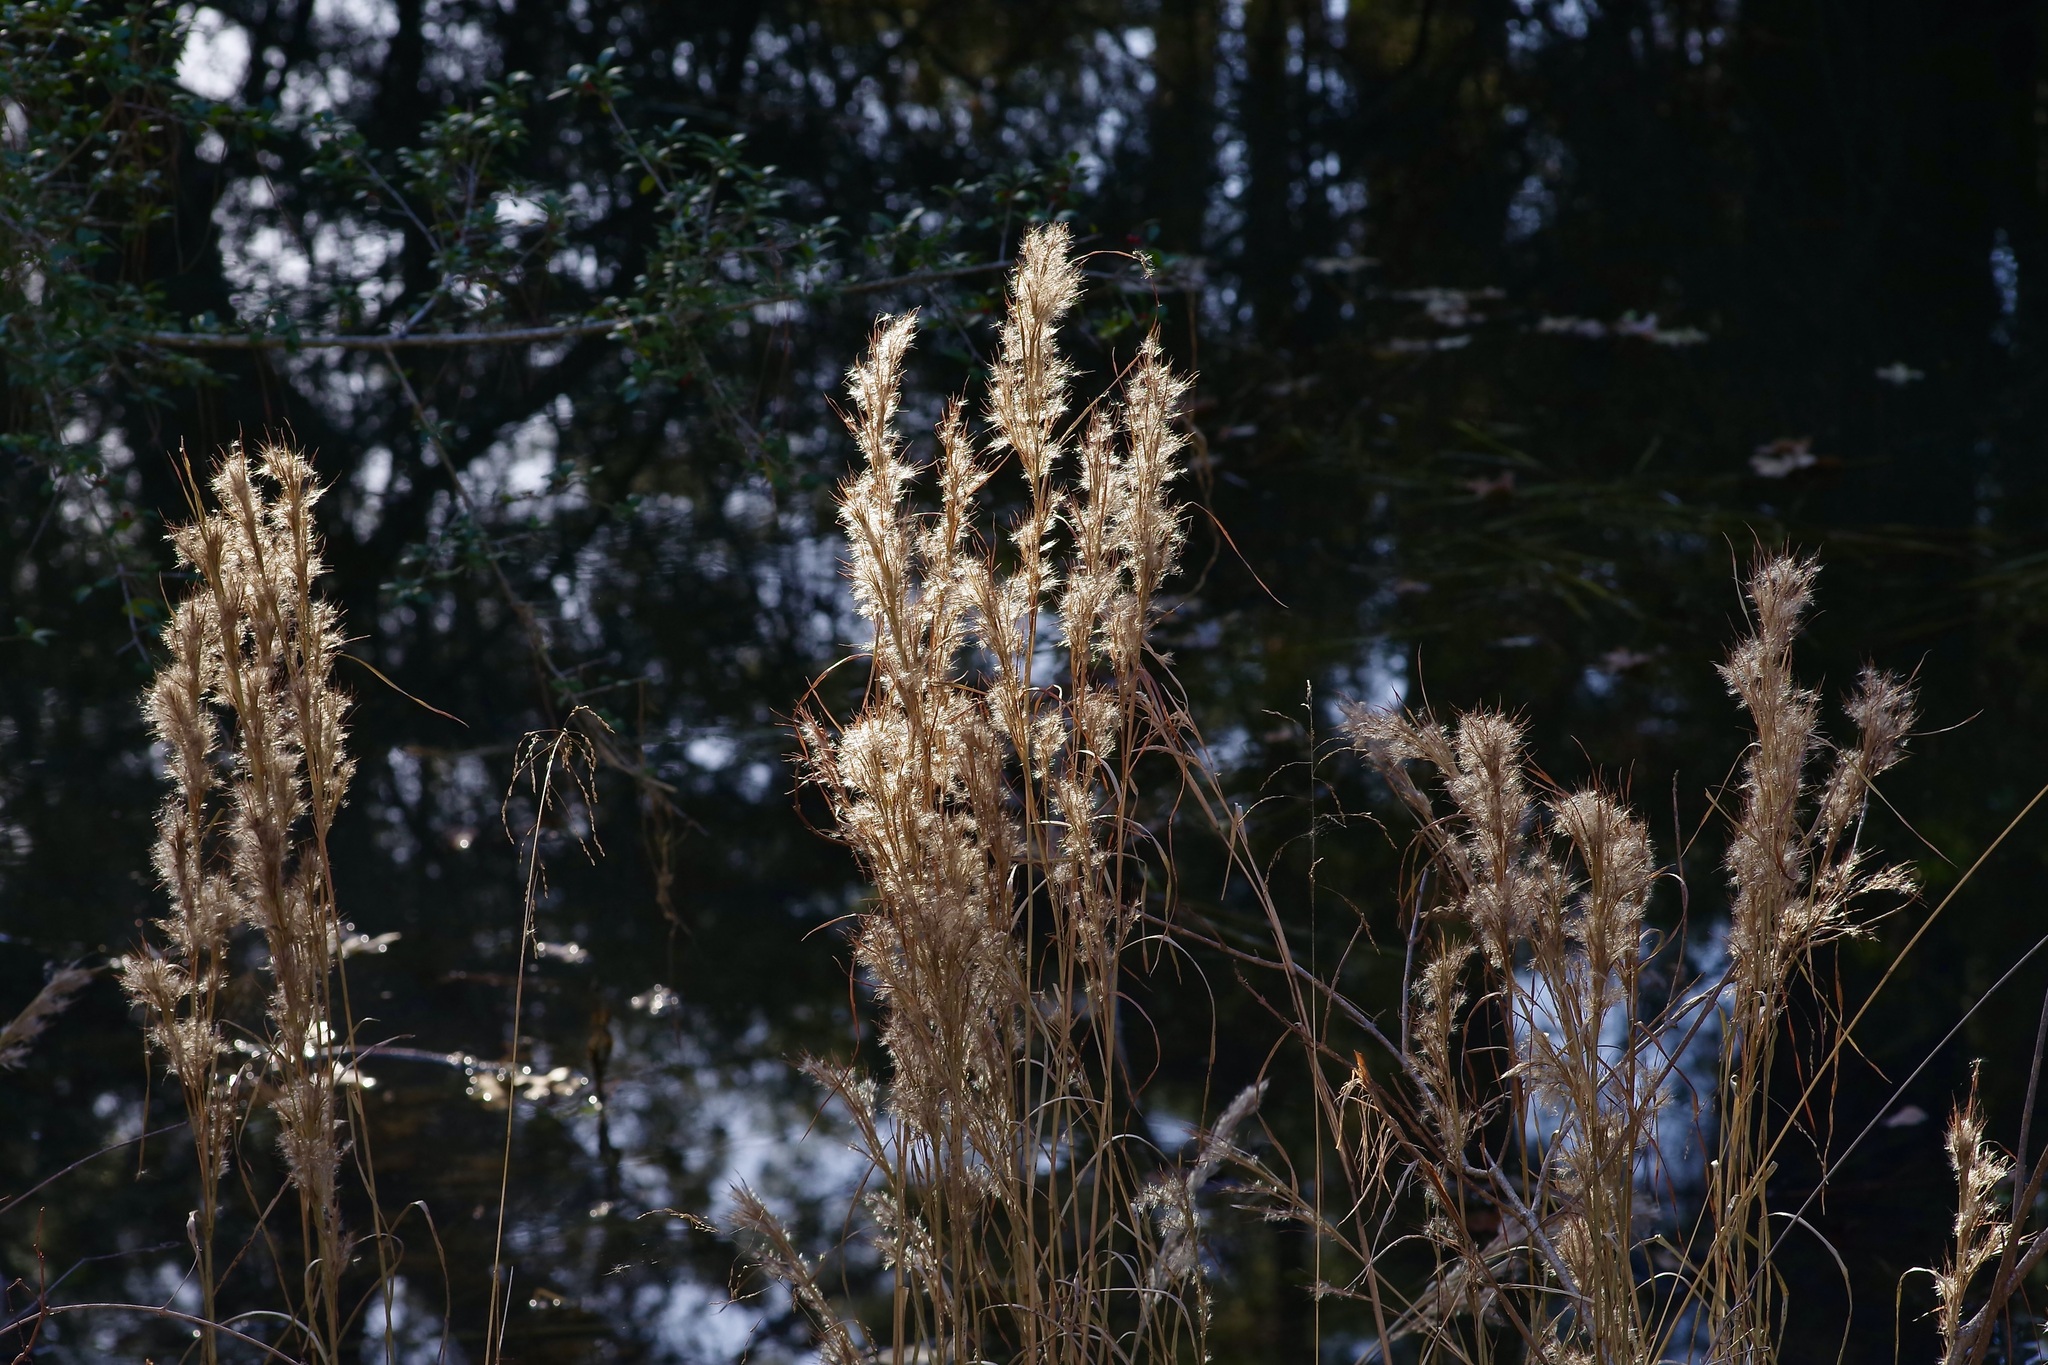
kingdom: Plantae
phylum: Tracheophyta
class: Liliopsida
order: Poales
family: Poaceae
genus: Andropogon
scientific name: Andropogon tenuispatheus
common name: Bushy bluestem
